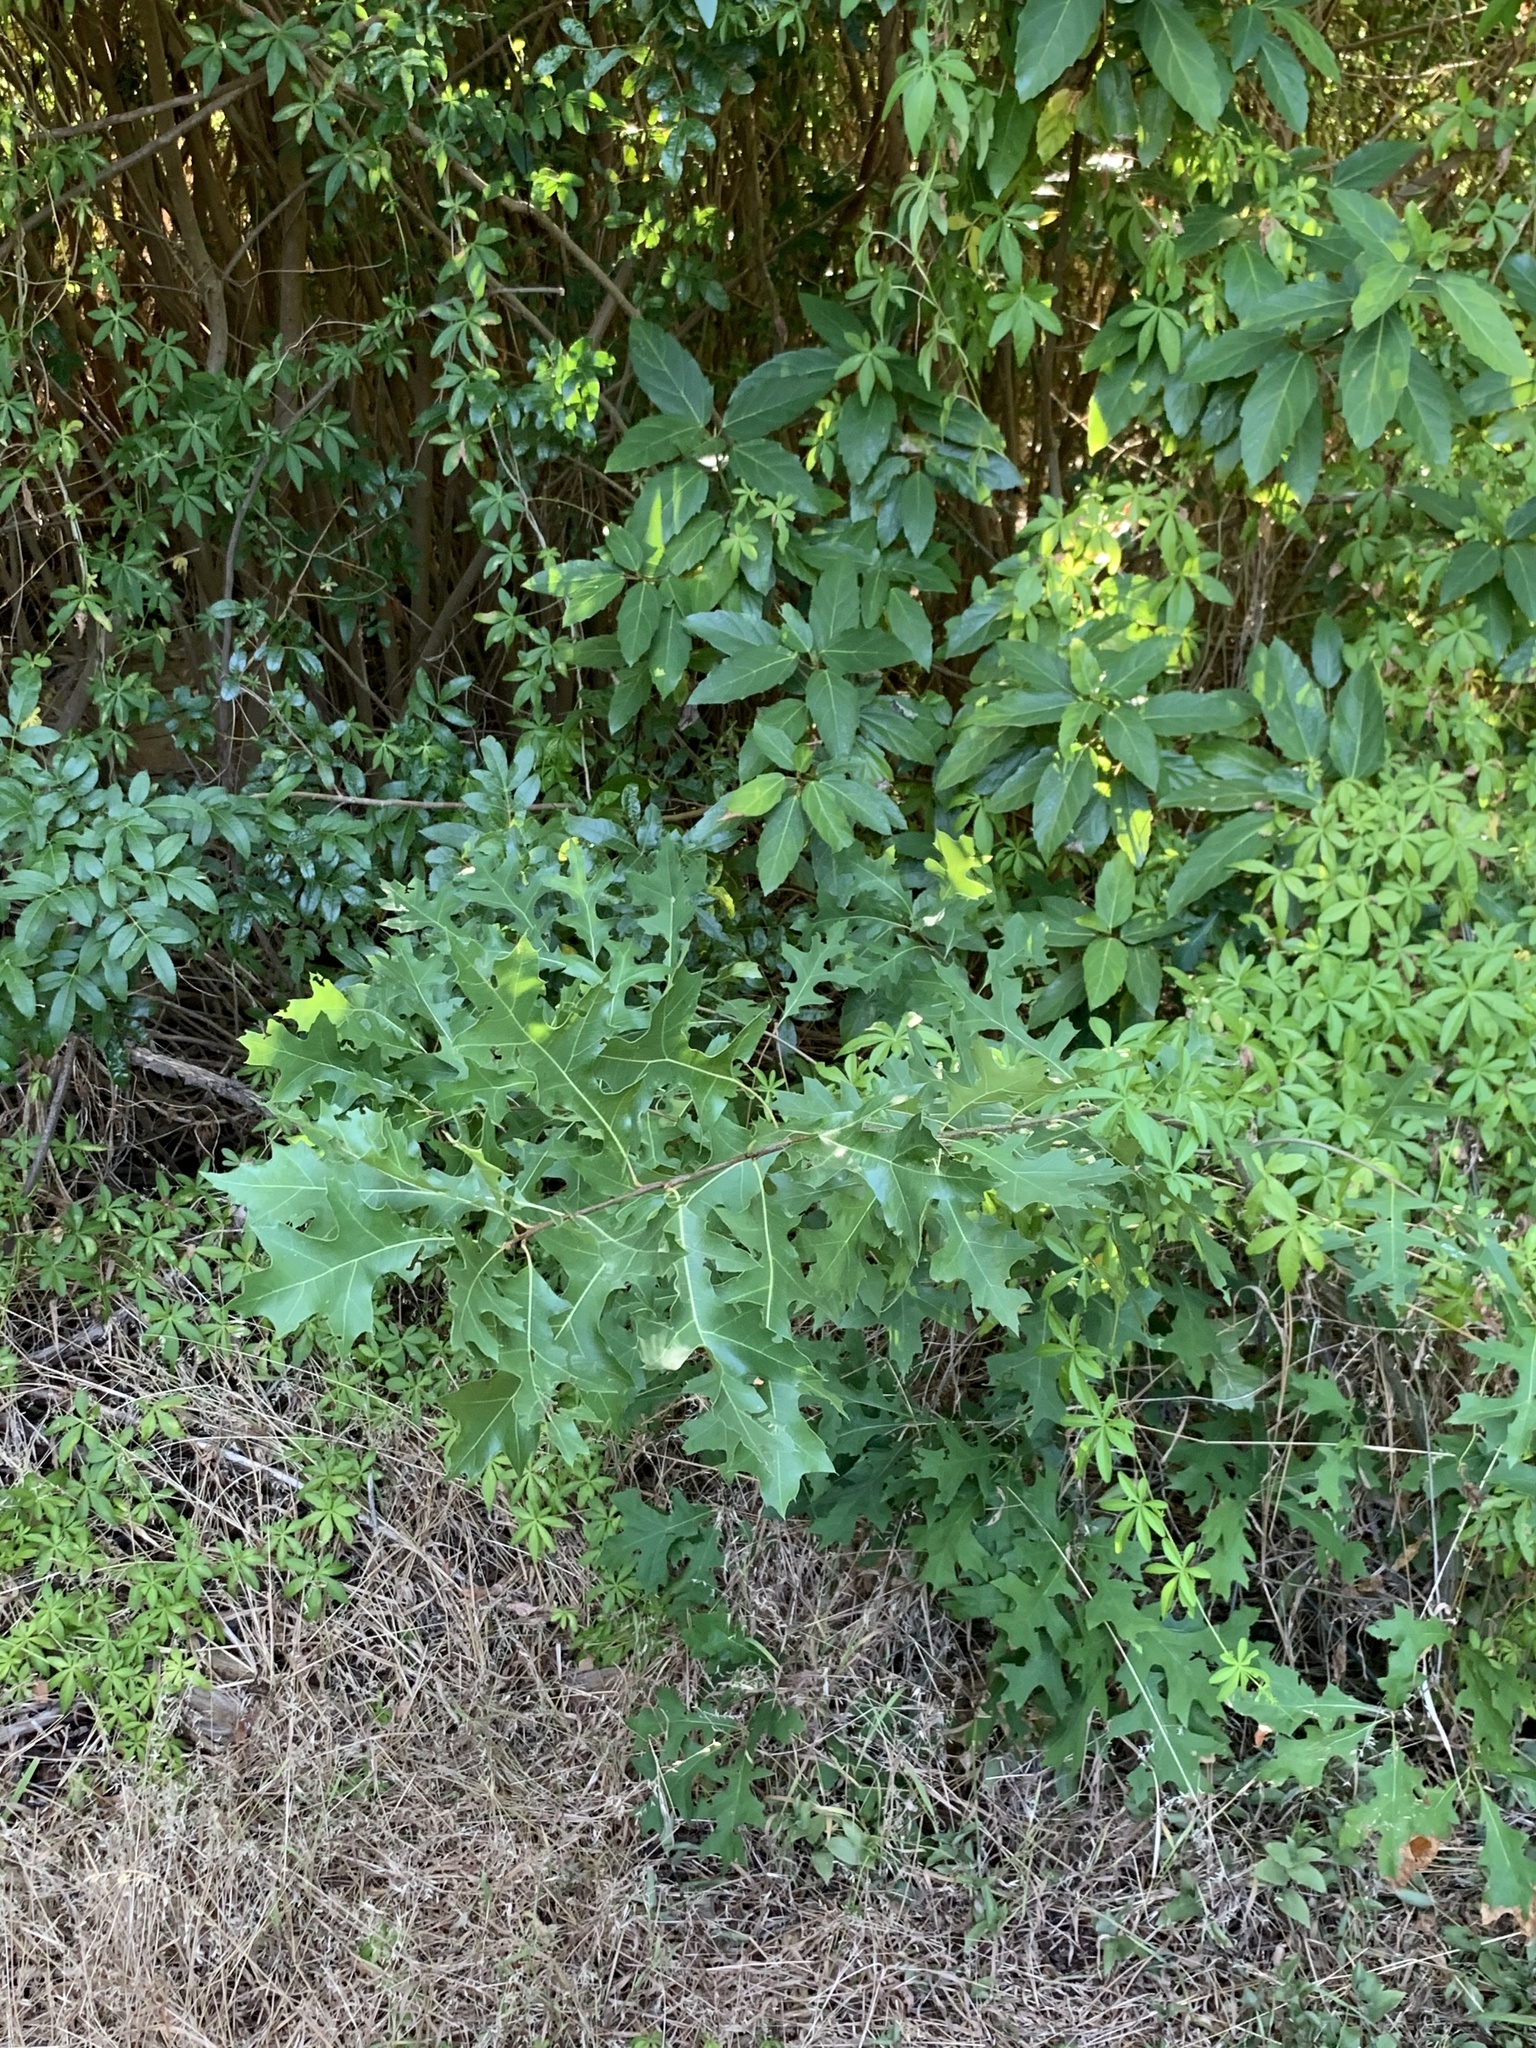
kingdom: Plantae
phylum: Tracheophyta
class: Magnoliopsida
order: Fagales
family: Fagaceae
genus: Quercus
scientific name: Quercus palustris
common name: Pin oak
